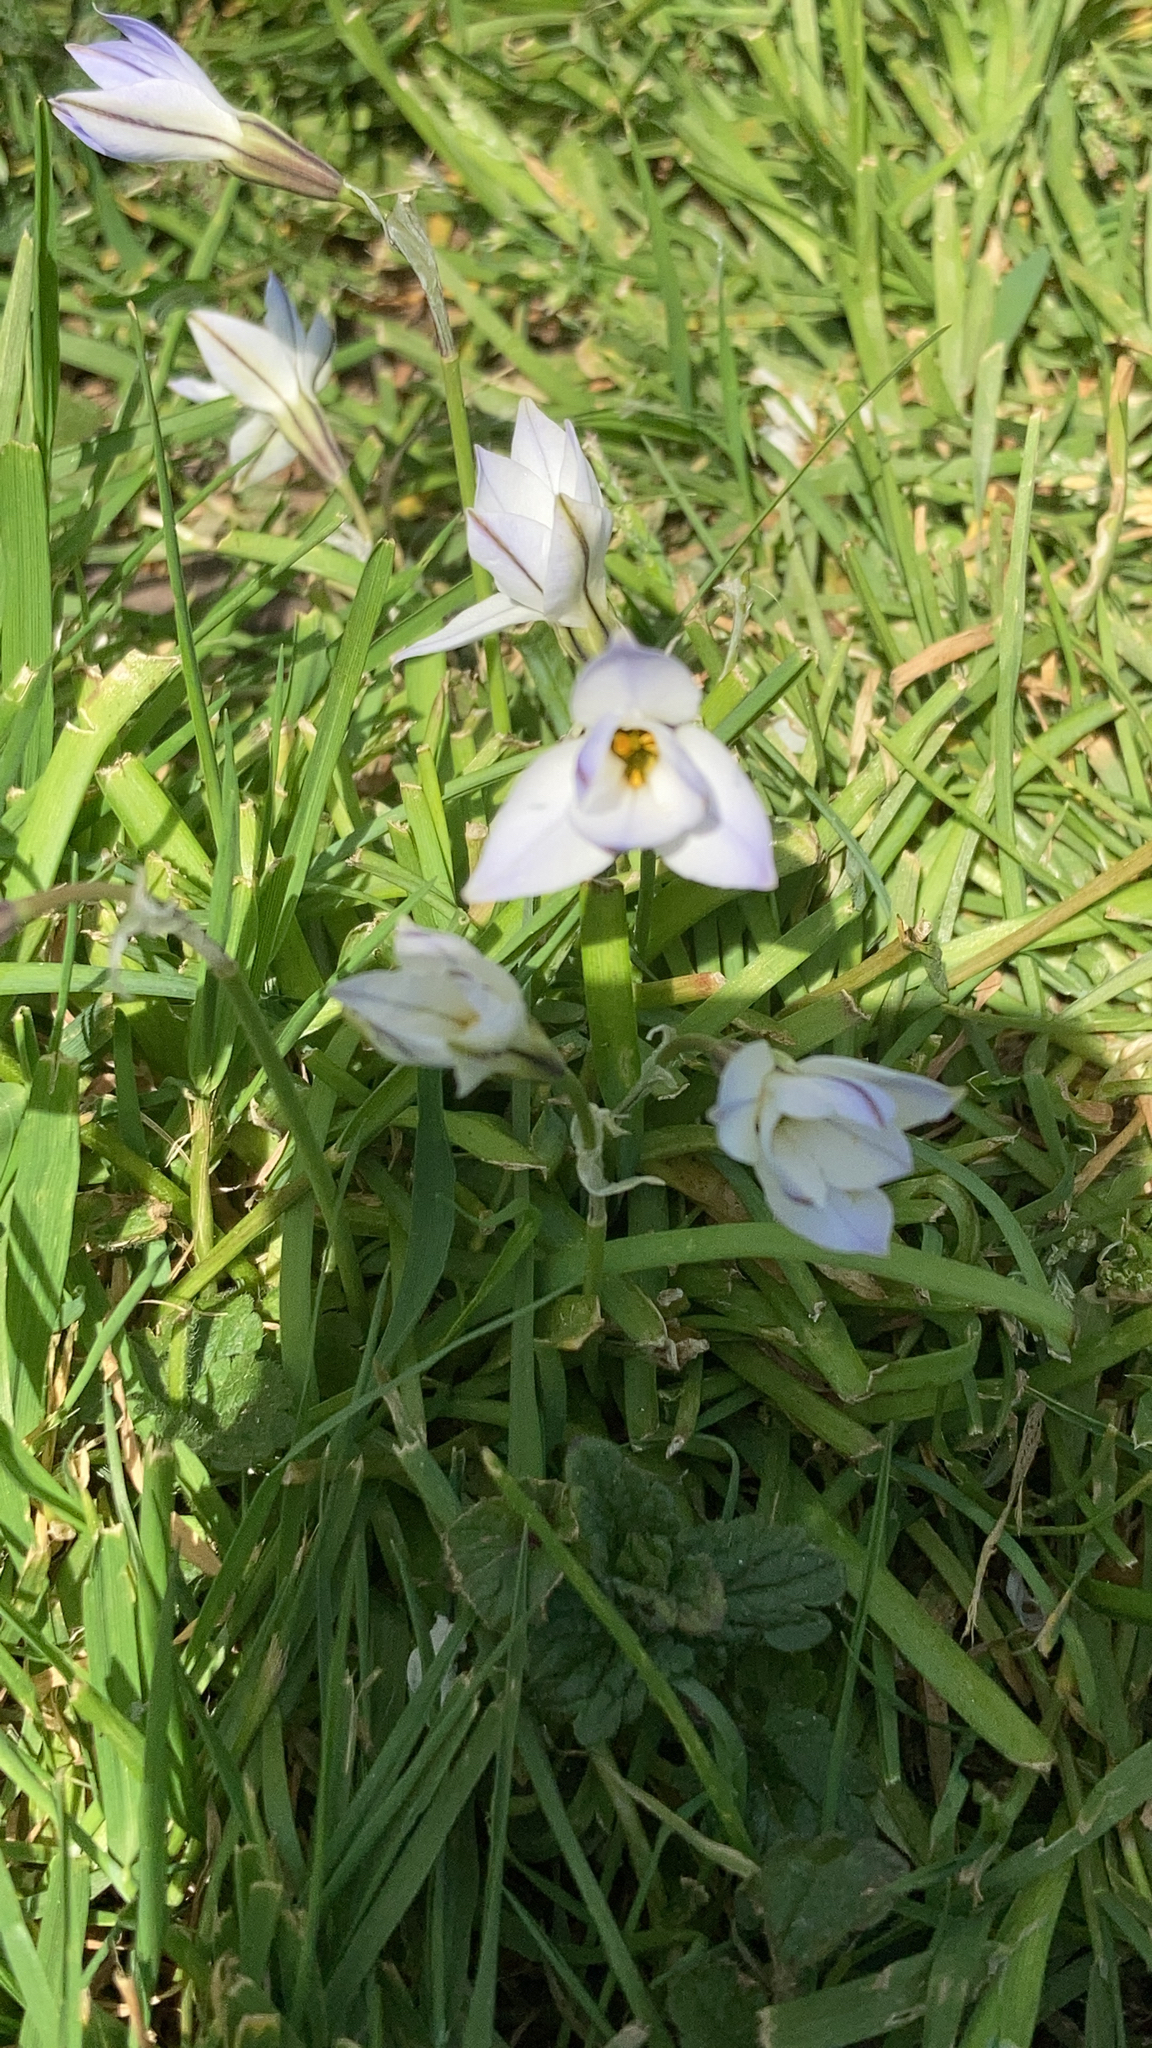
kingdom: Plantae
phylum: Tracheophyta
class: Liliopsida
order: Asparagales
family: Amaryllidaceae
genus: Ipheion
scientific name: Ipheion uniflorum
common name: Spring starflower
